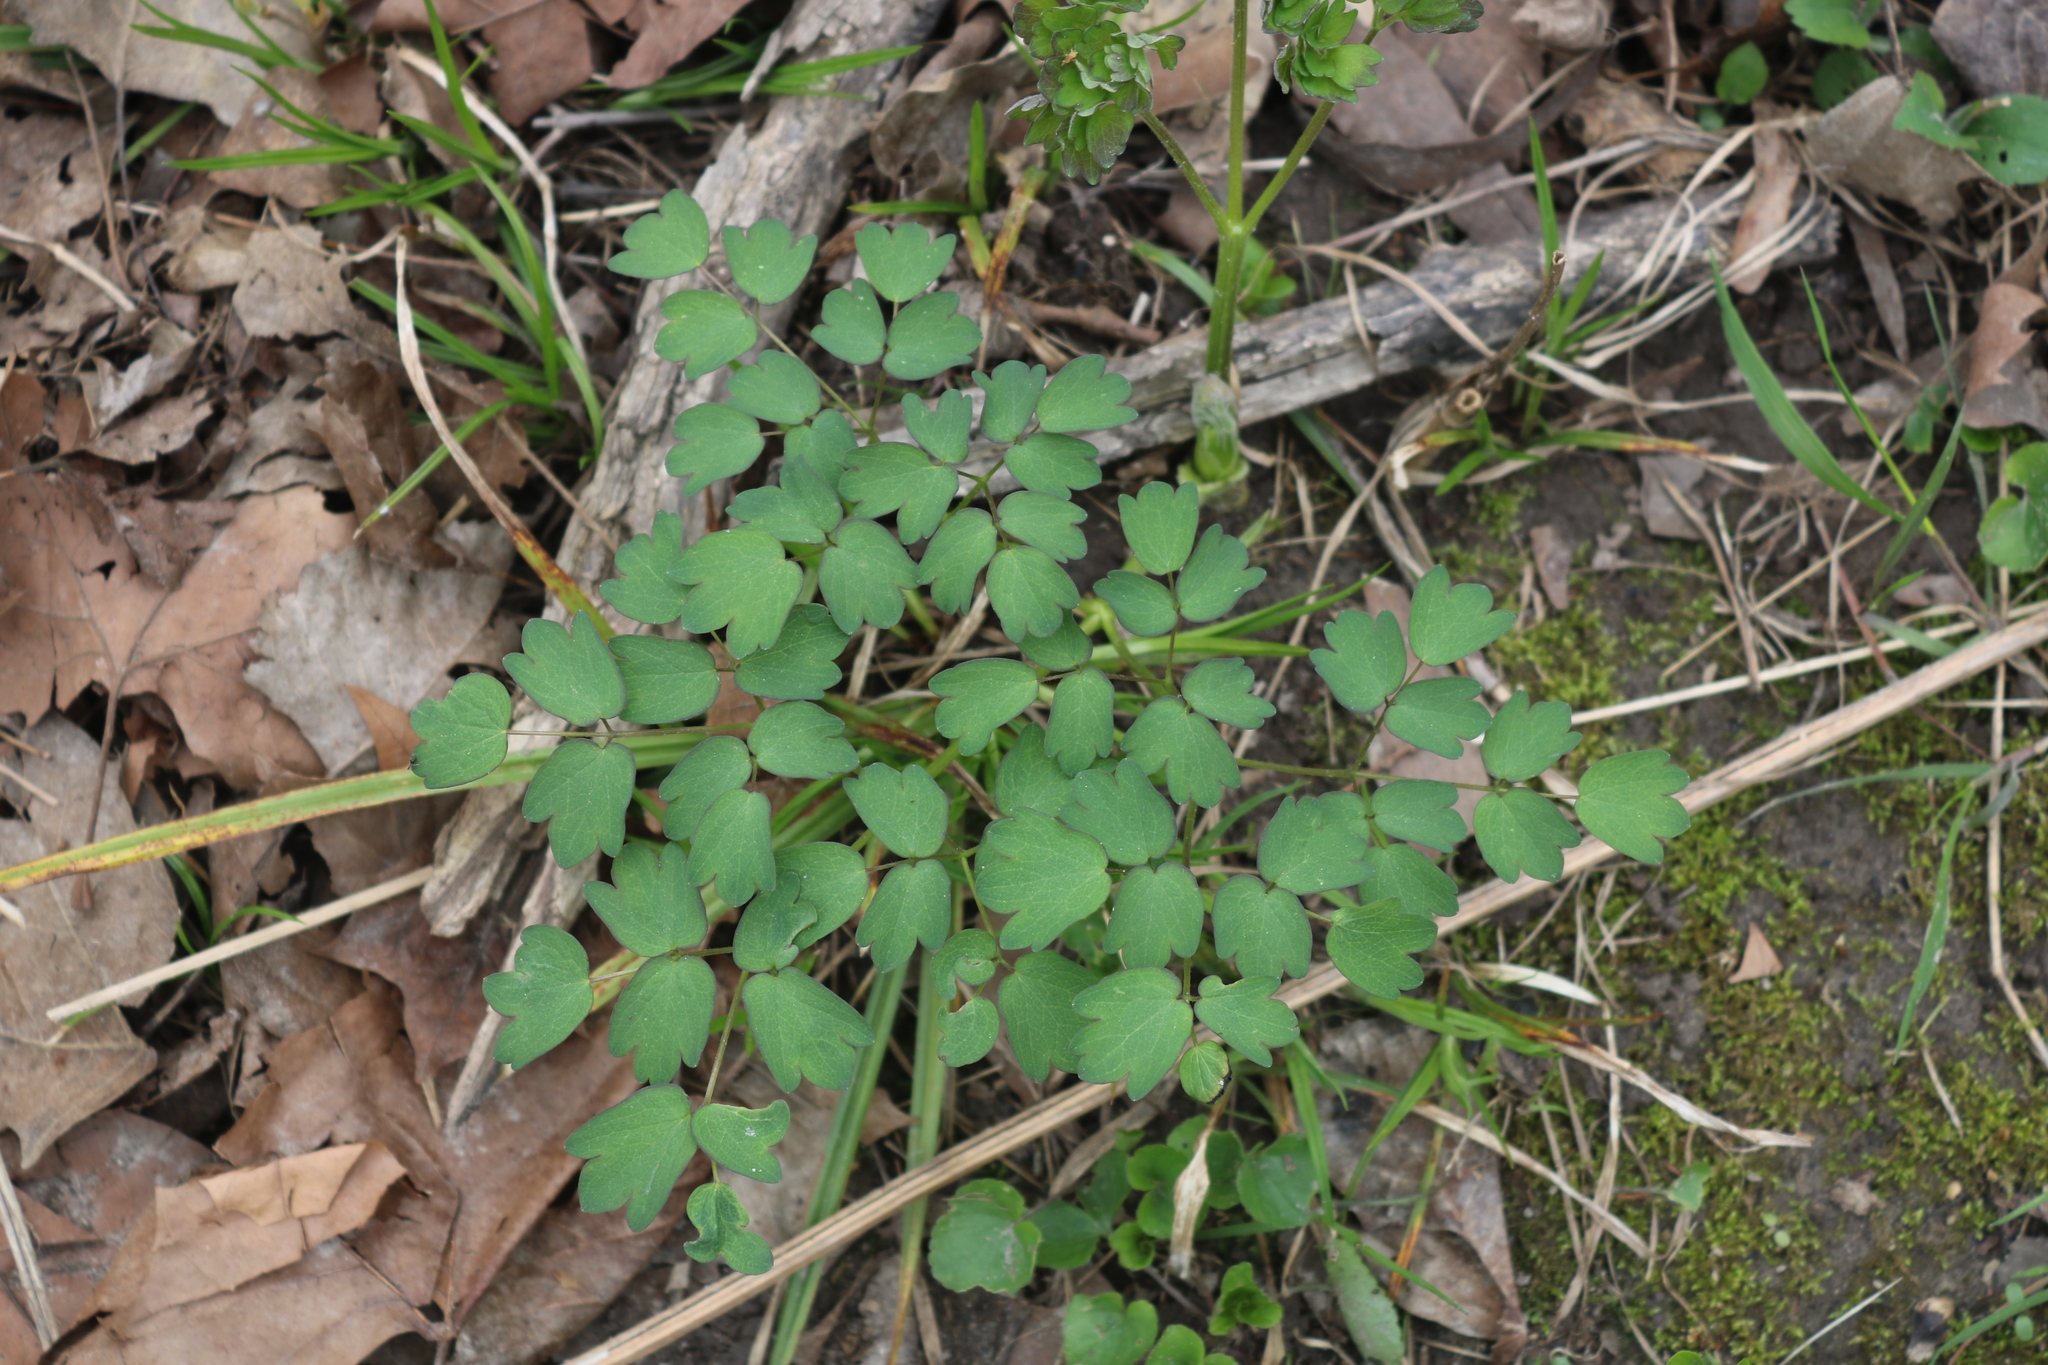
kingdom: Plantae
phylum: Tracheophyta
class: Magnoliopsida
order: Ranunculales
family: Ranunculaceae
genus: Thalictrum
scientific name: Thalictrum dioicum
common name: Early meadow-rue
